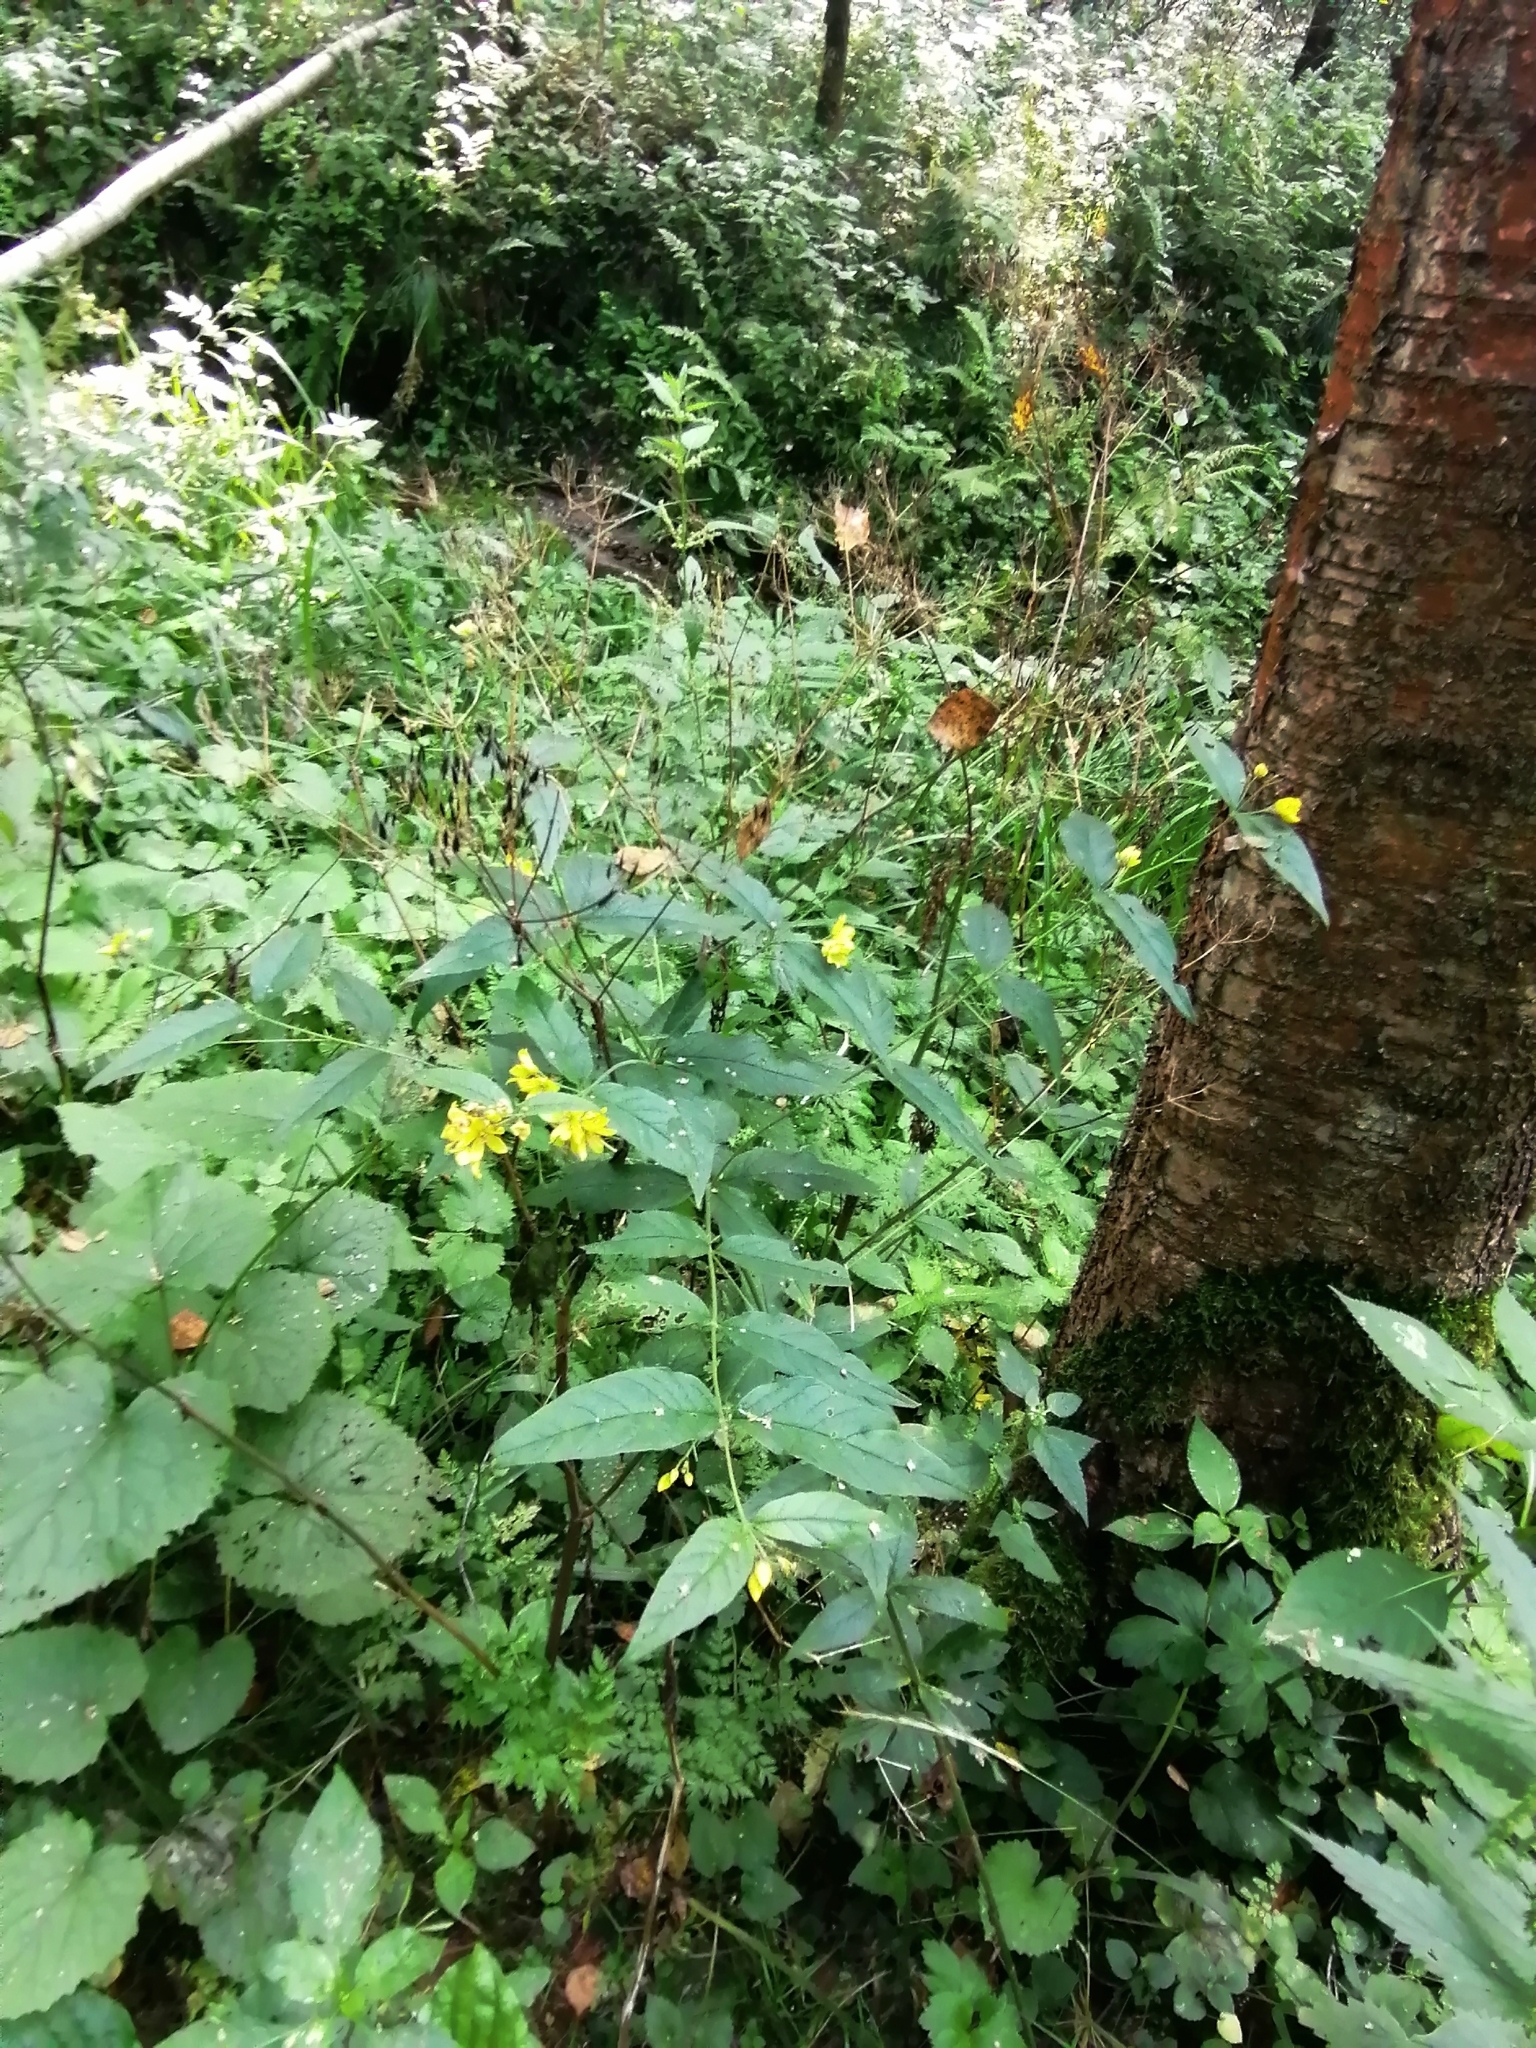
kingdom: Plantae
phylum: Tracheophyta
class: Magnoliopsida
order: Ericales
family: Primulaceae
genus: Lysimachia
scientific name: Lysimachia vulgaris
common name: Yellow loosestrife
